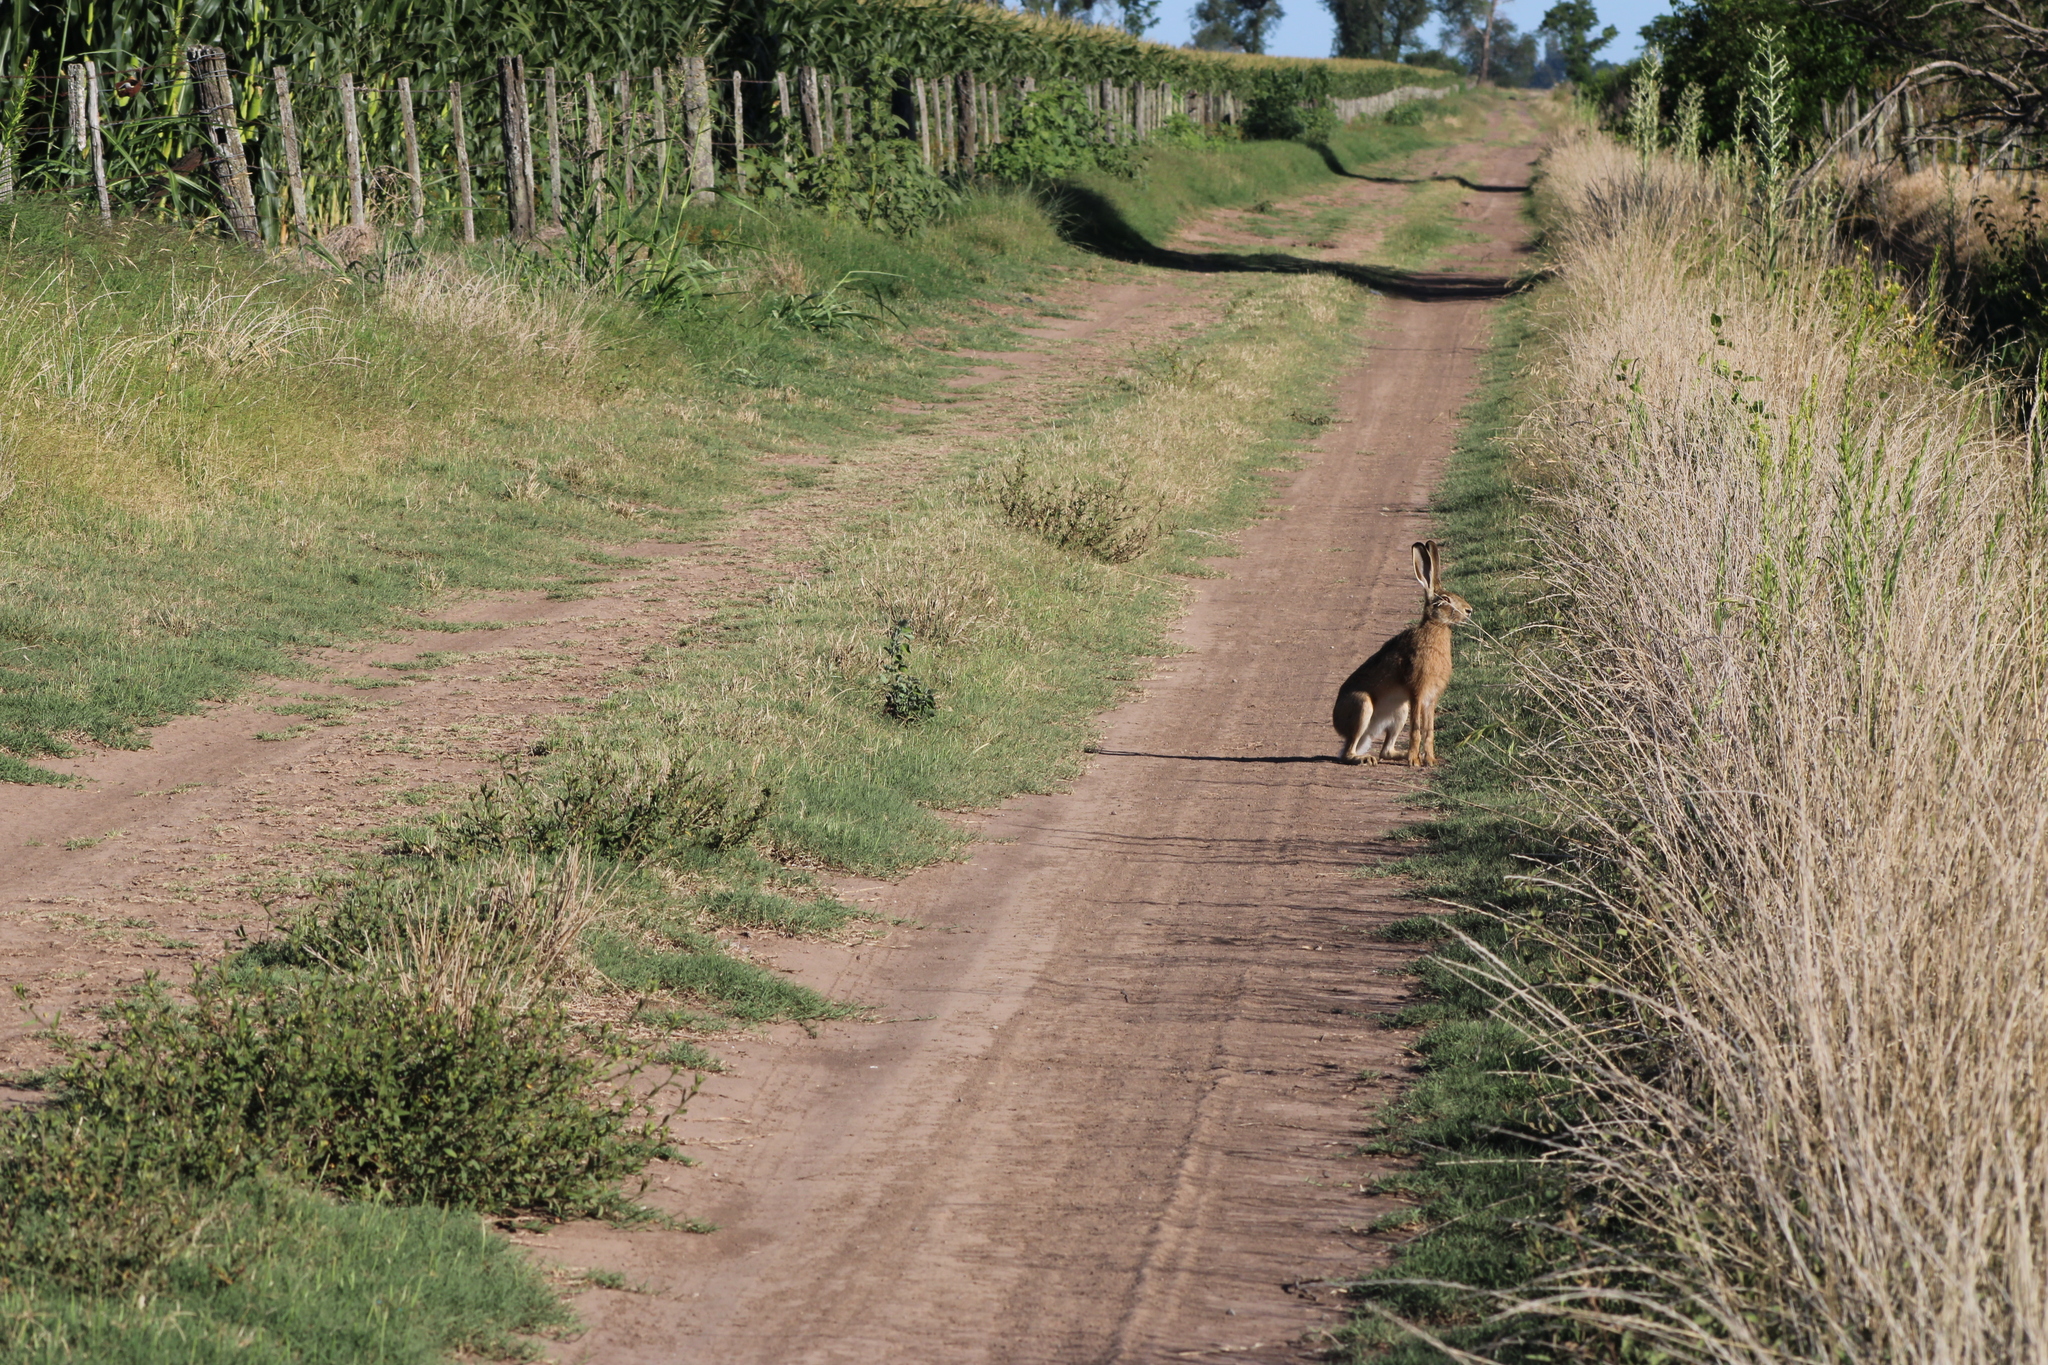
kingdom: Animalia
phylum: Chordata
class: Mammalia
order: Lagomorpha
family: Leporidae
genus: Lepus
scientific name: Lepus europaeus
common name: European hare
